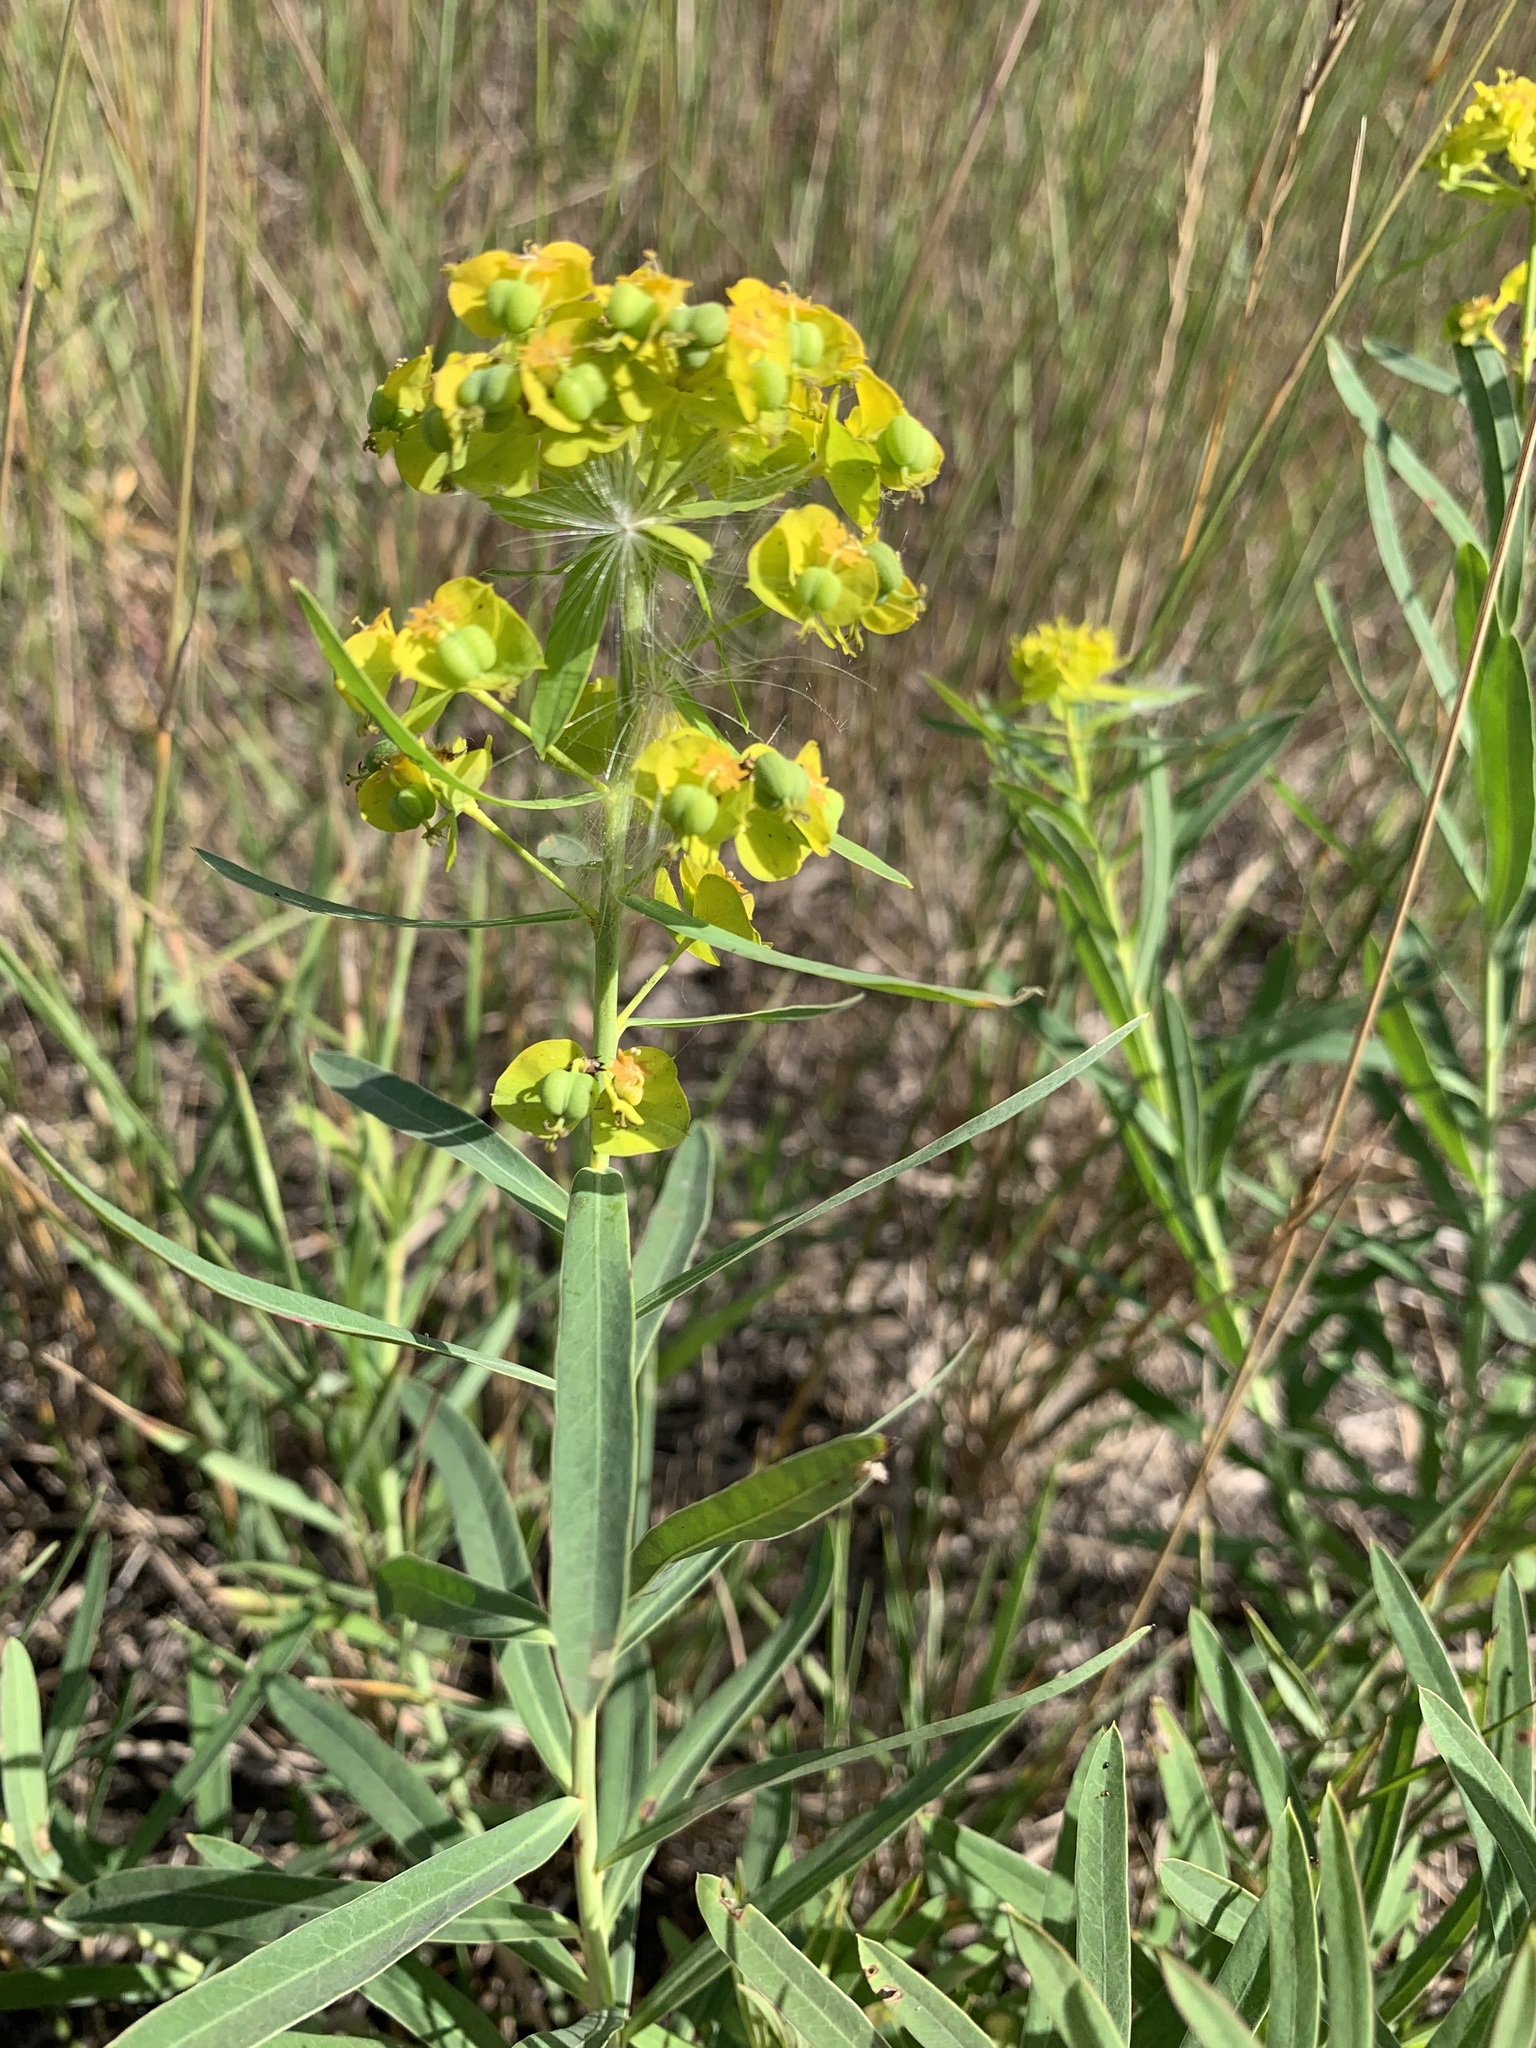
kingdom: Plantae
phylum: Tracheophyta
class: Magnoliopsida
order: Malpighiales
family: Euphorbiaceae
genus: Euphorbia
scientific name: Euphorbia virgata
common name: Leafy spurge
